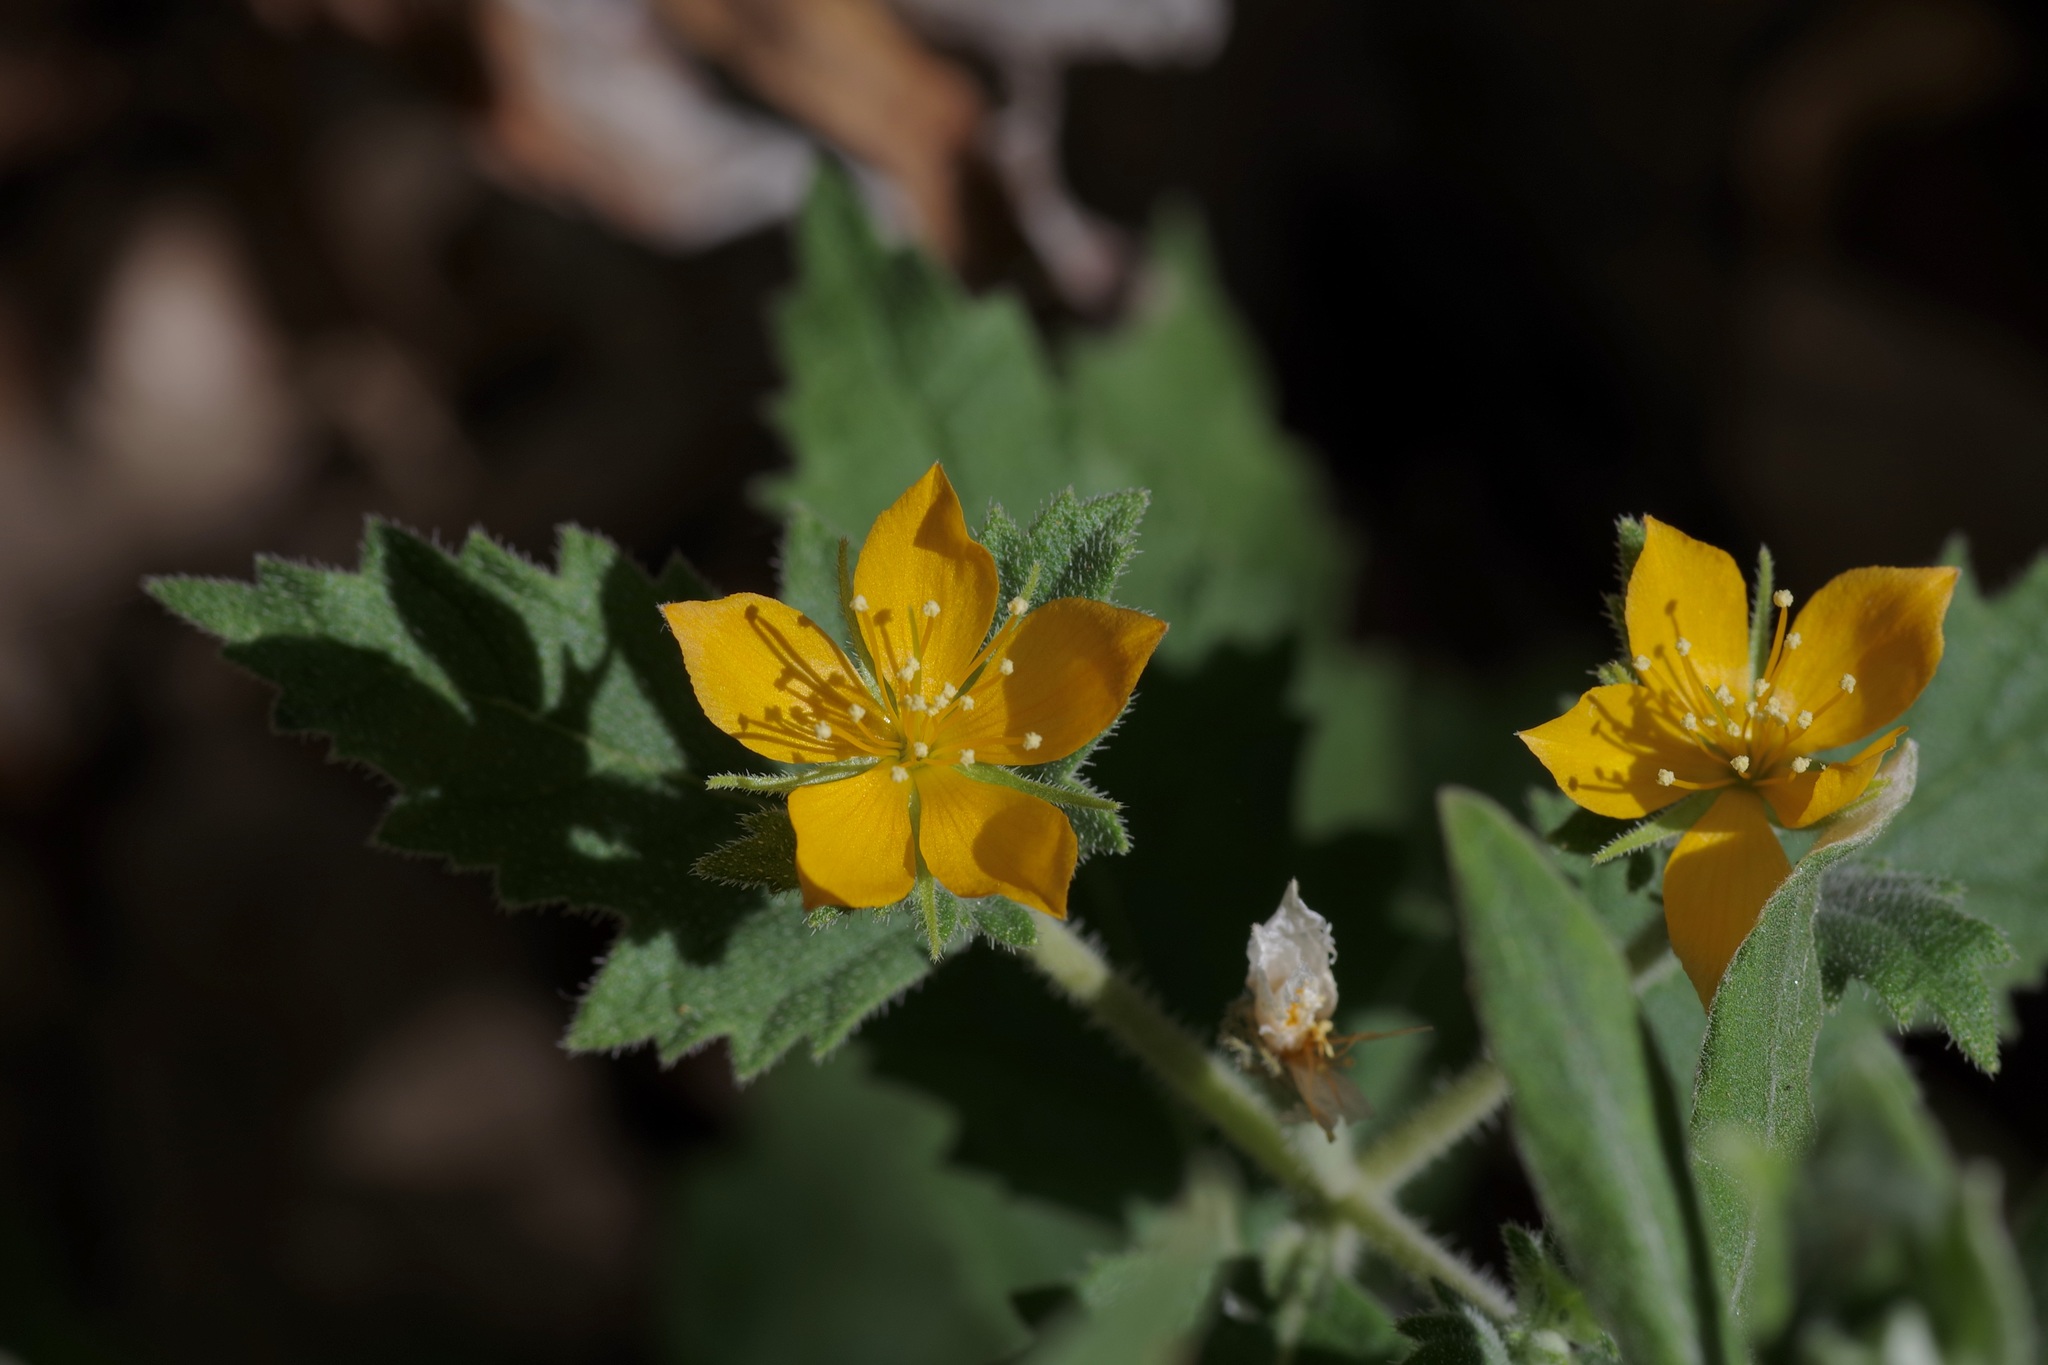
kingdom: Plantae
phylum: Tracheophyta
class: Magnoliopsida
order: Cornales
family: Loasaceae
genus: Mentzelia
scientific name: Mentzelia oligosperma
